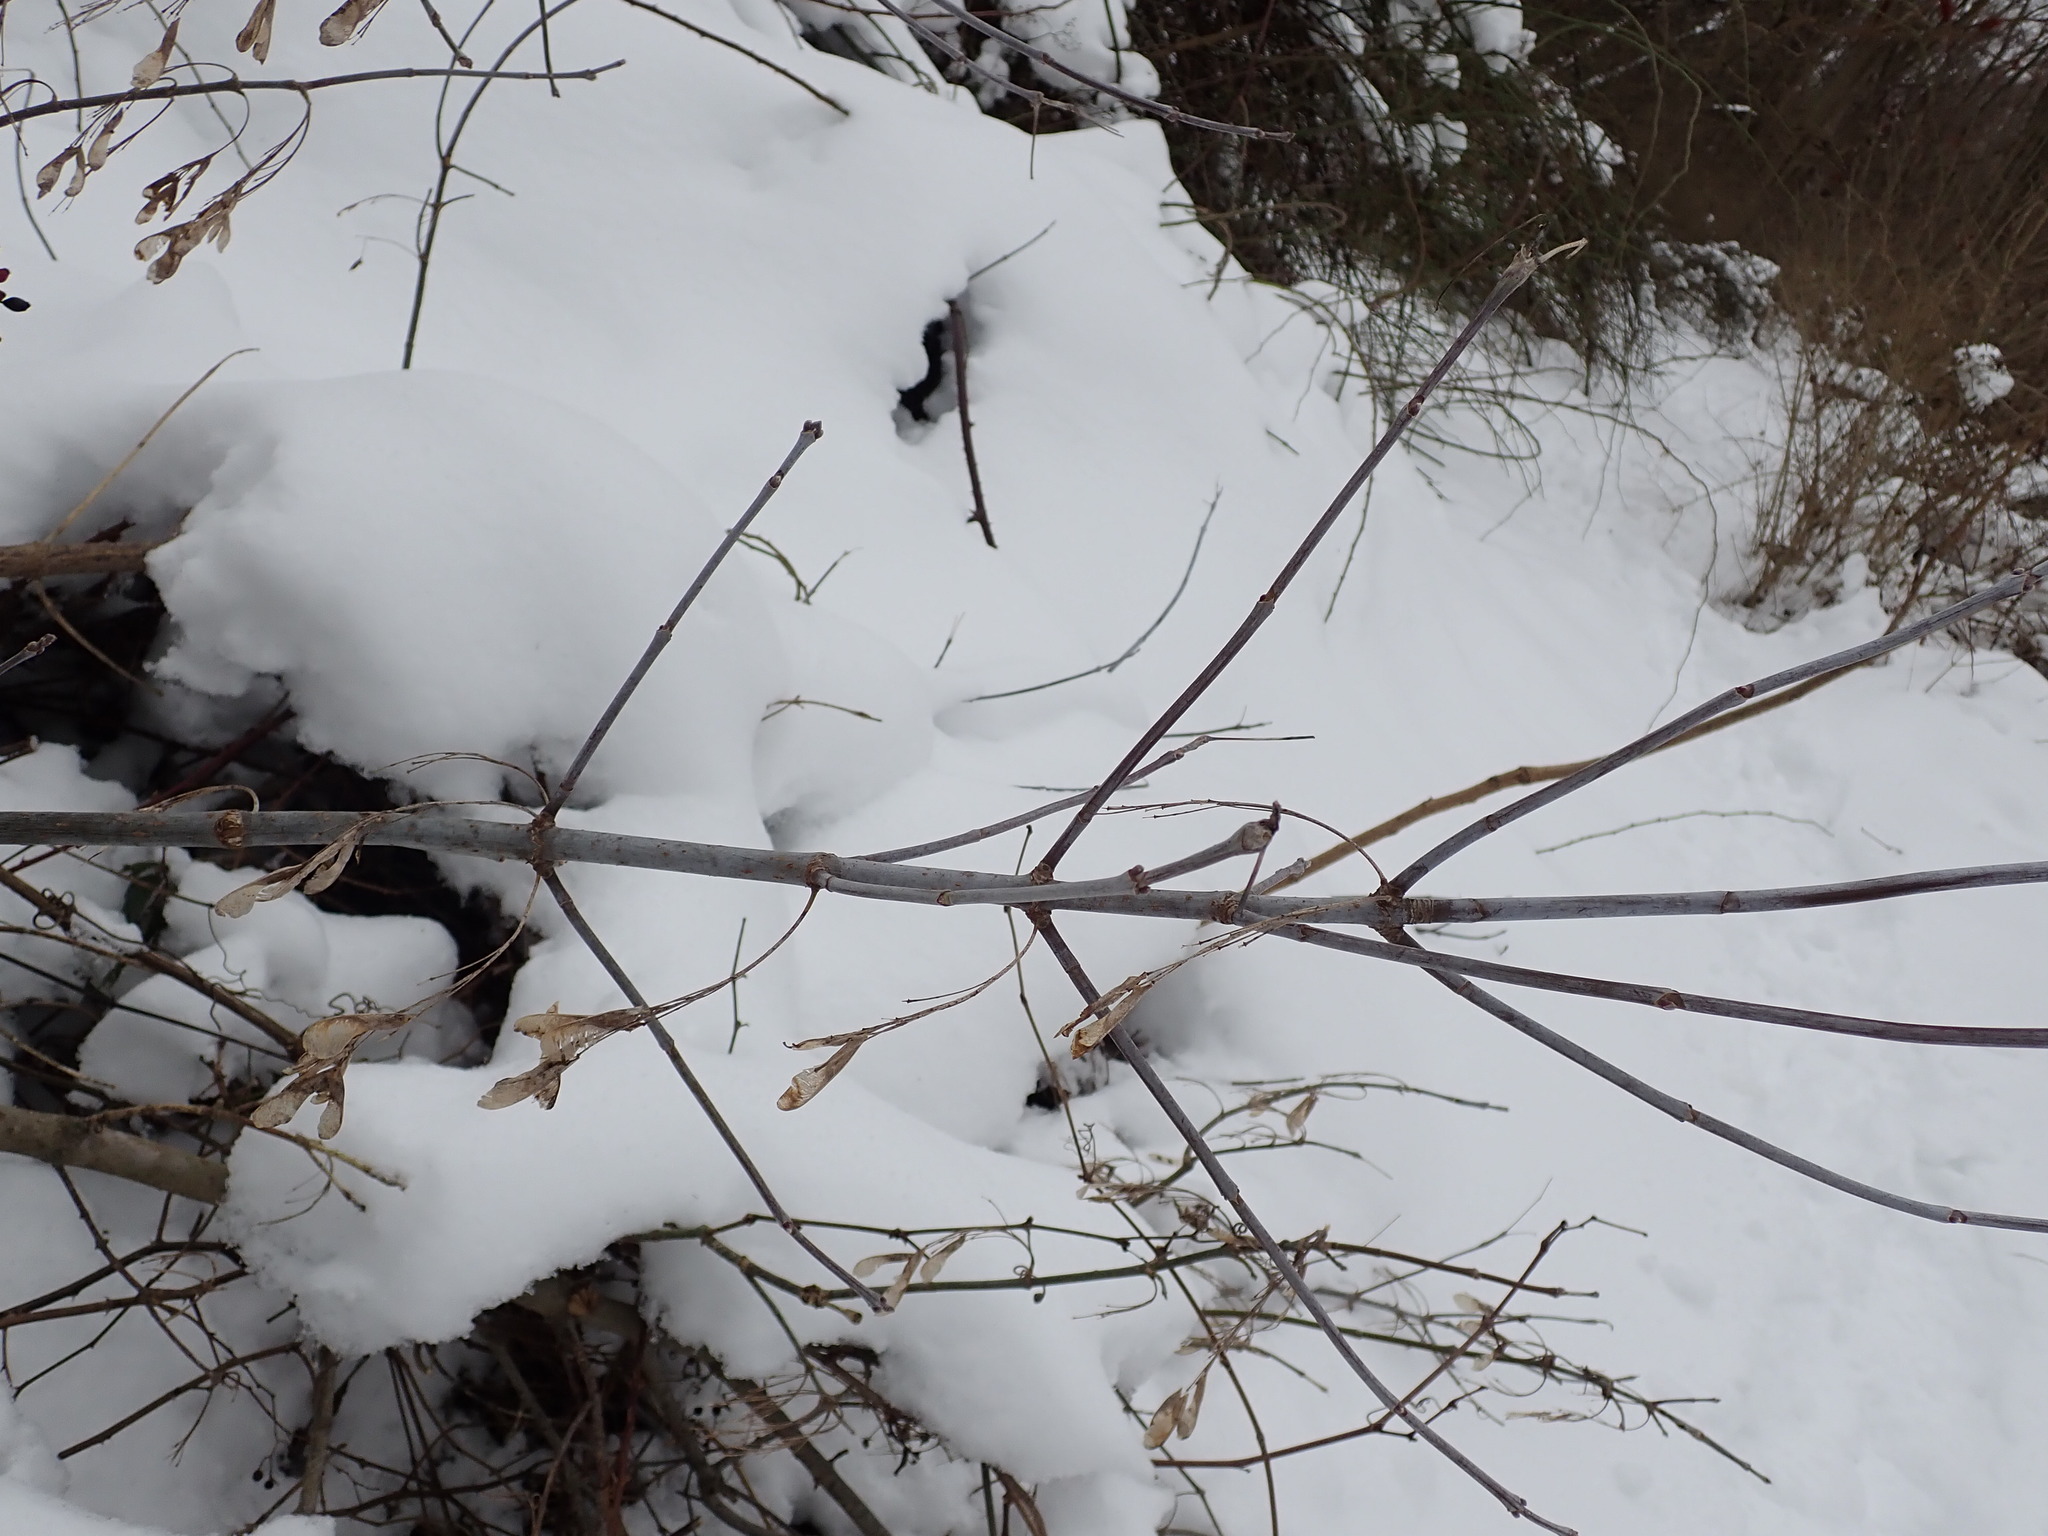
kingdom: Plantae
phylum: Tracheophyta
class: Magnoliopsida
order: Sapindales
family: Sapindaceae
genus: Acer
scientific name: Acer negundo
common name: Ashleaf maple
